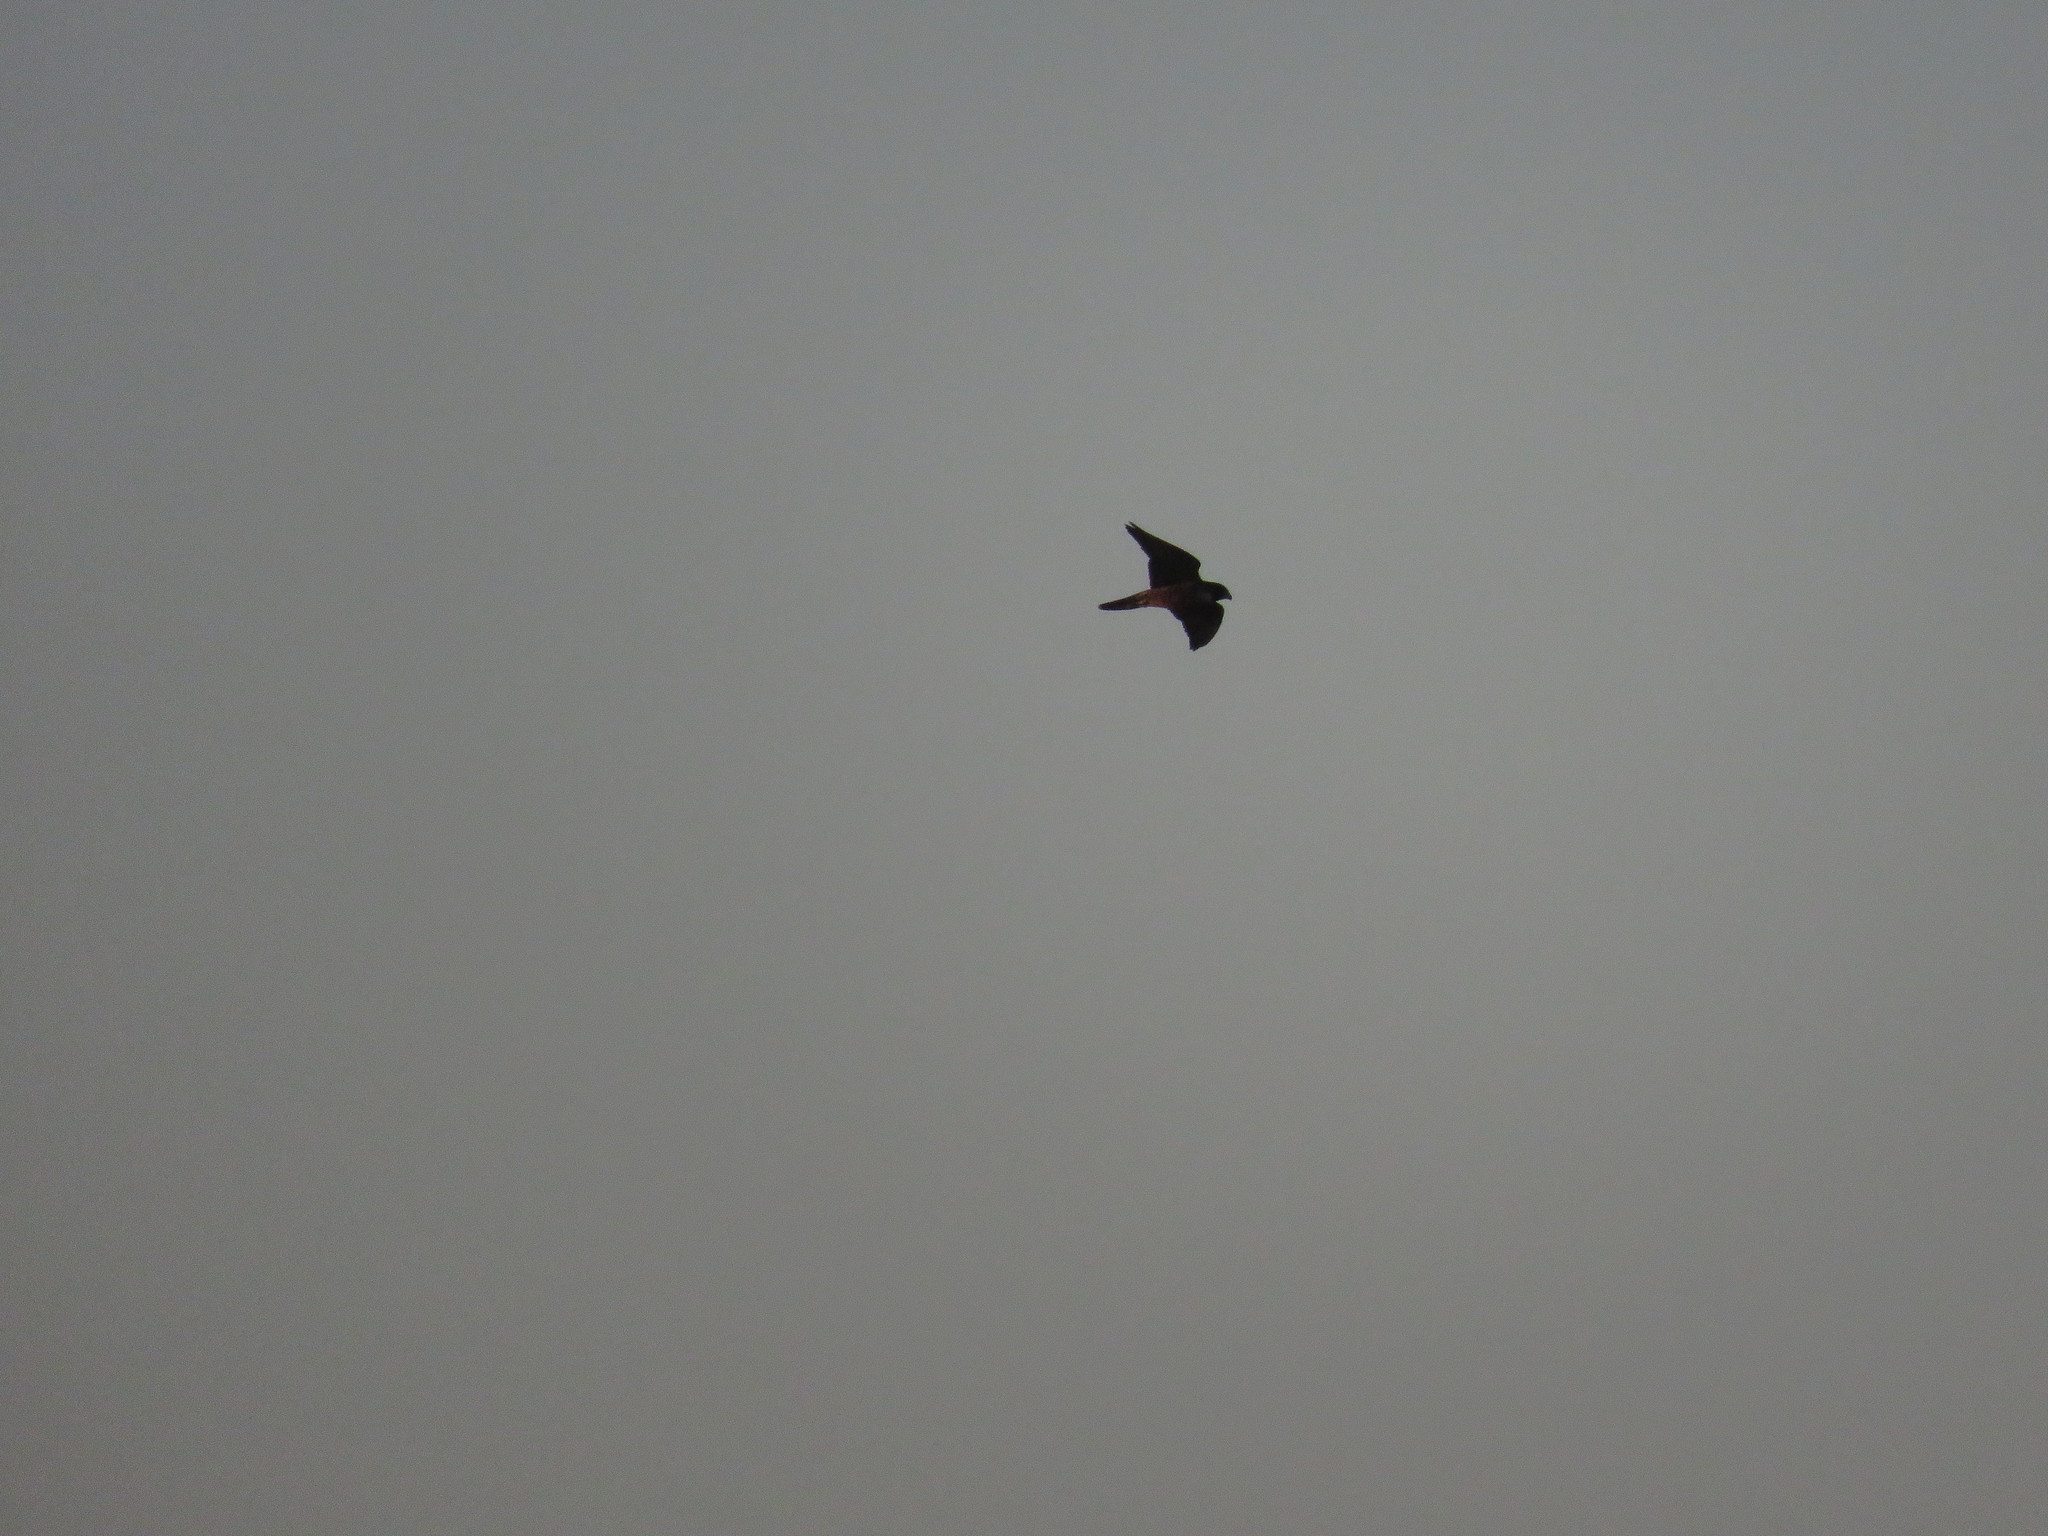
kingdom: Animalia
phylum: Chordata
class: Aves
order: Falconiformes
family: Falconidae
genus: Falco
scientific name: Falco peregrinus
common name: Peregrine falcon
